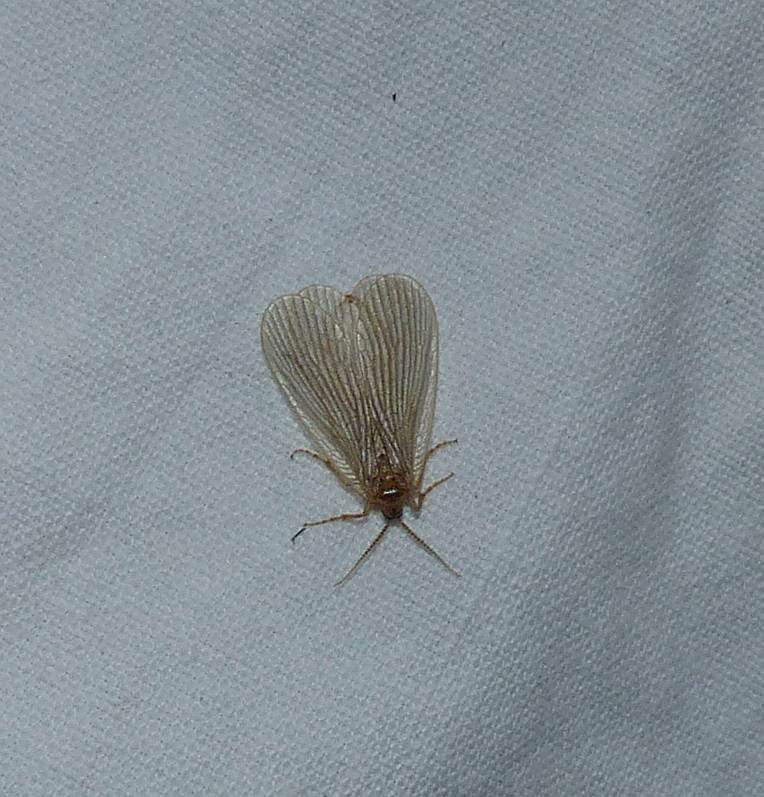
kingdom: Animalia
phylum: Arthropoda
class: Insecta
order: Mecoptera
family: Meropeidae
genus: Merope
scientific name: Merope tuber
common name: Forcepfly
